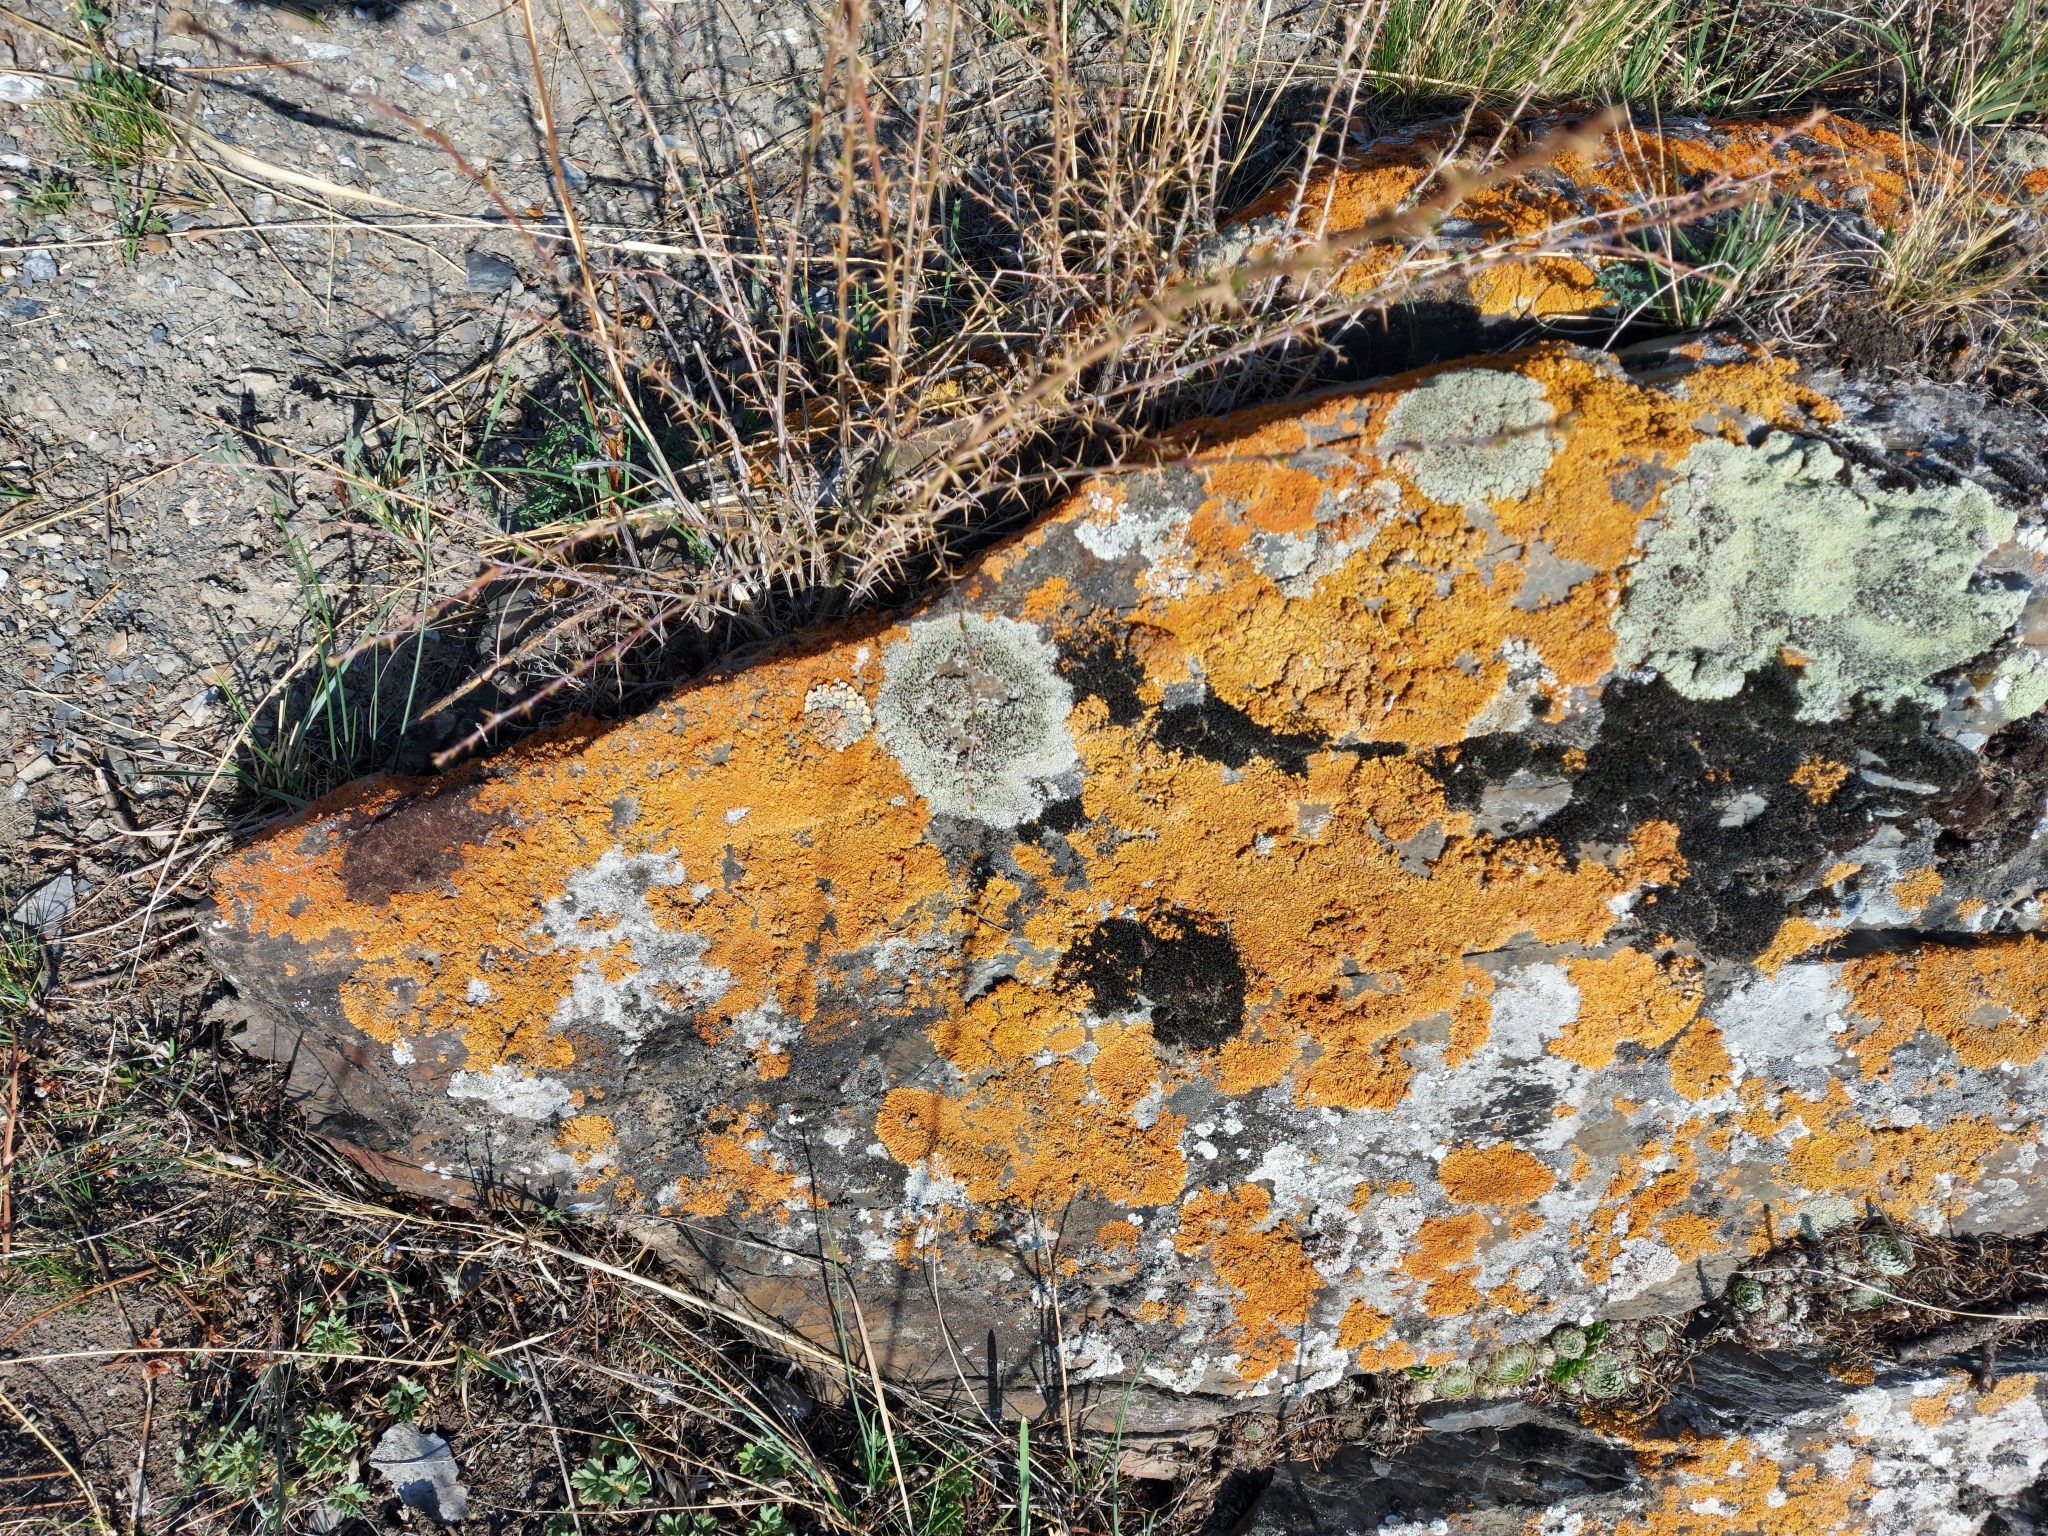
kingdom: Fungi
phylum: Ascomycota
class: Lecanoromycetes
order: Teloschistales
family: Teloschistaceae
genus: Xanthoria
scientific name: Xanthoria parietina
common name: Common orange lichen
